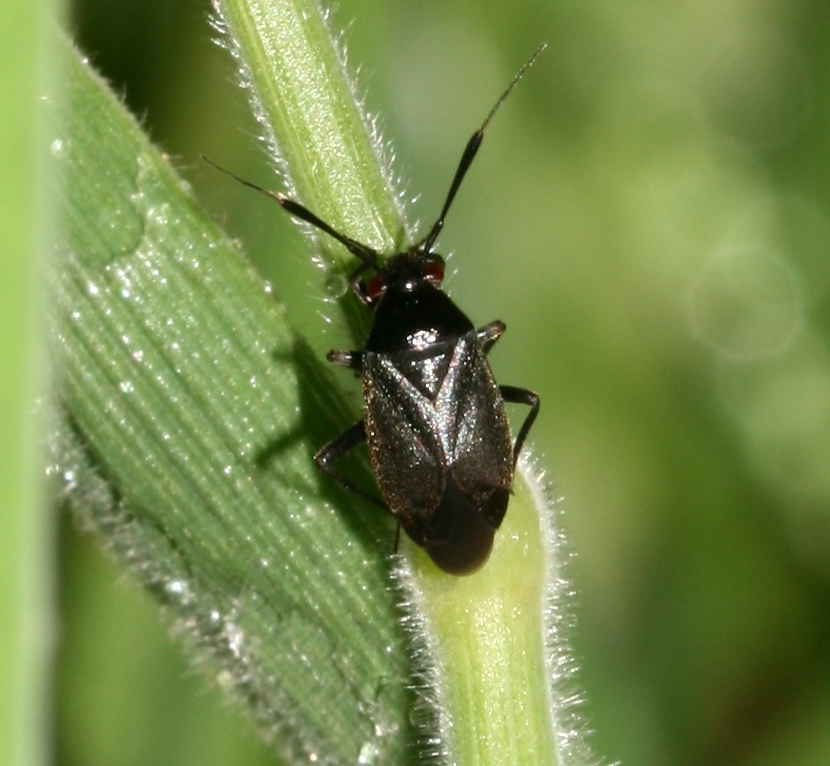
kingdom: Animalia
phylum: Arthropoda
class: Insecta
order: Hemiptera
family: Miridae
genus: Capsus
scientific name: Capsus ater
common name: Black plant bug
